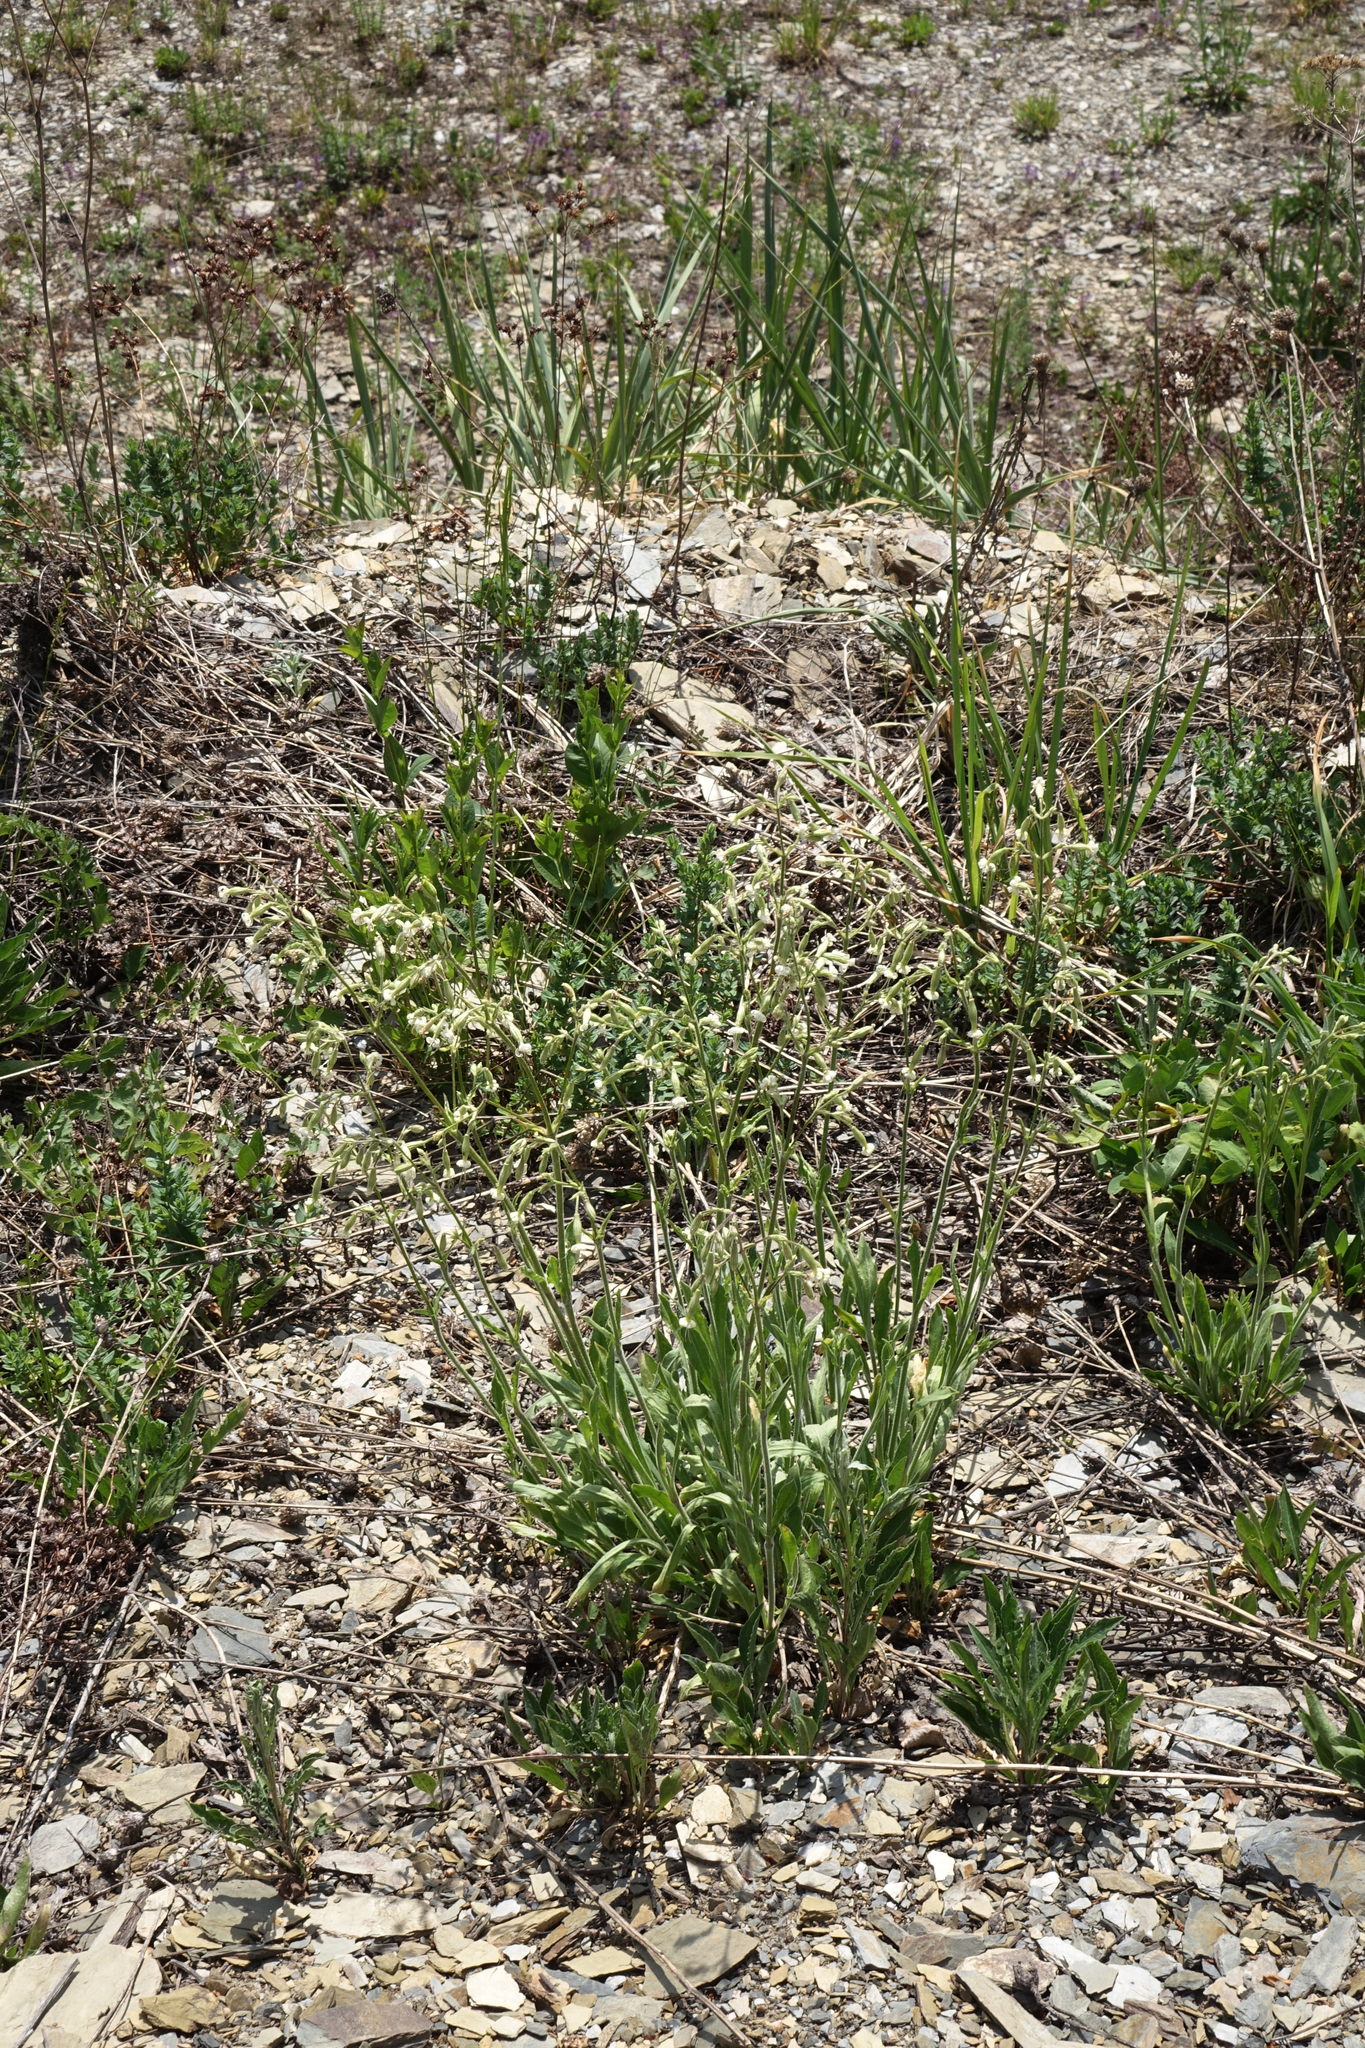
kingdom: Plantae
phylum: Tracheophyta
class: Magnoliopsida
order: Caryophyllales
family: Caryophyllaceae
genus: Silene
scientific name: Silene nutans
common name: Nottingham catchfly
